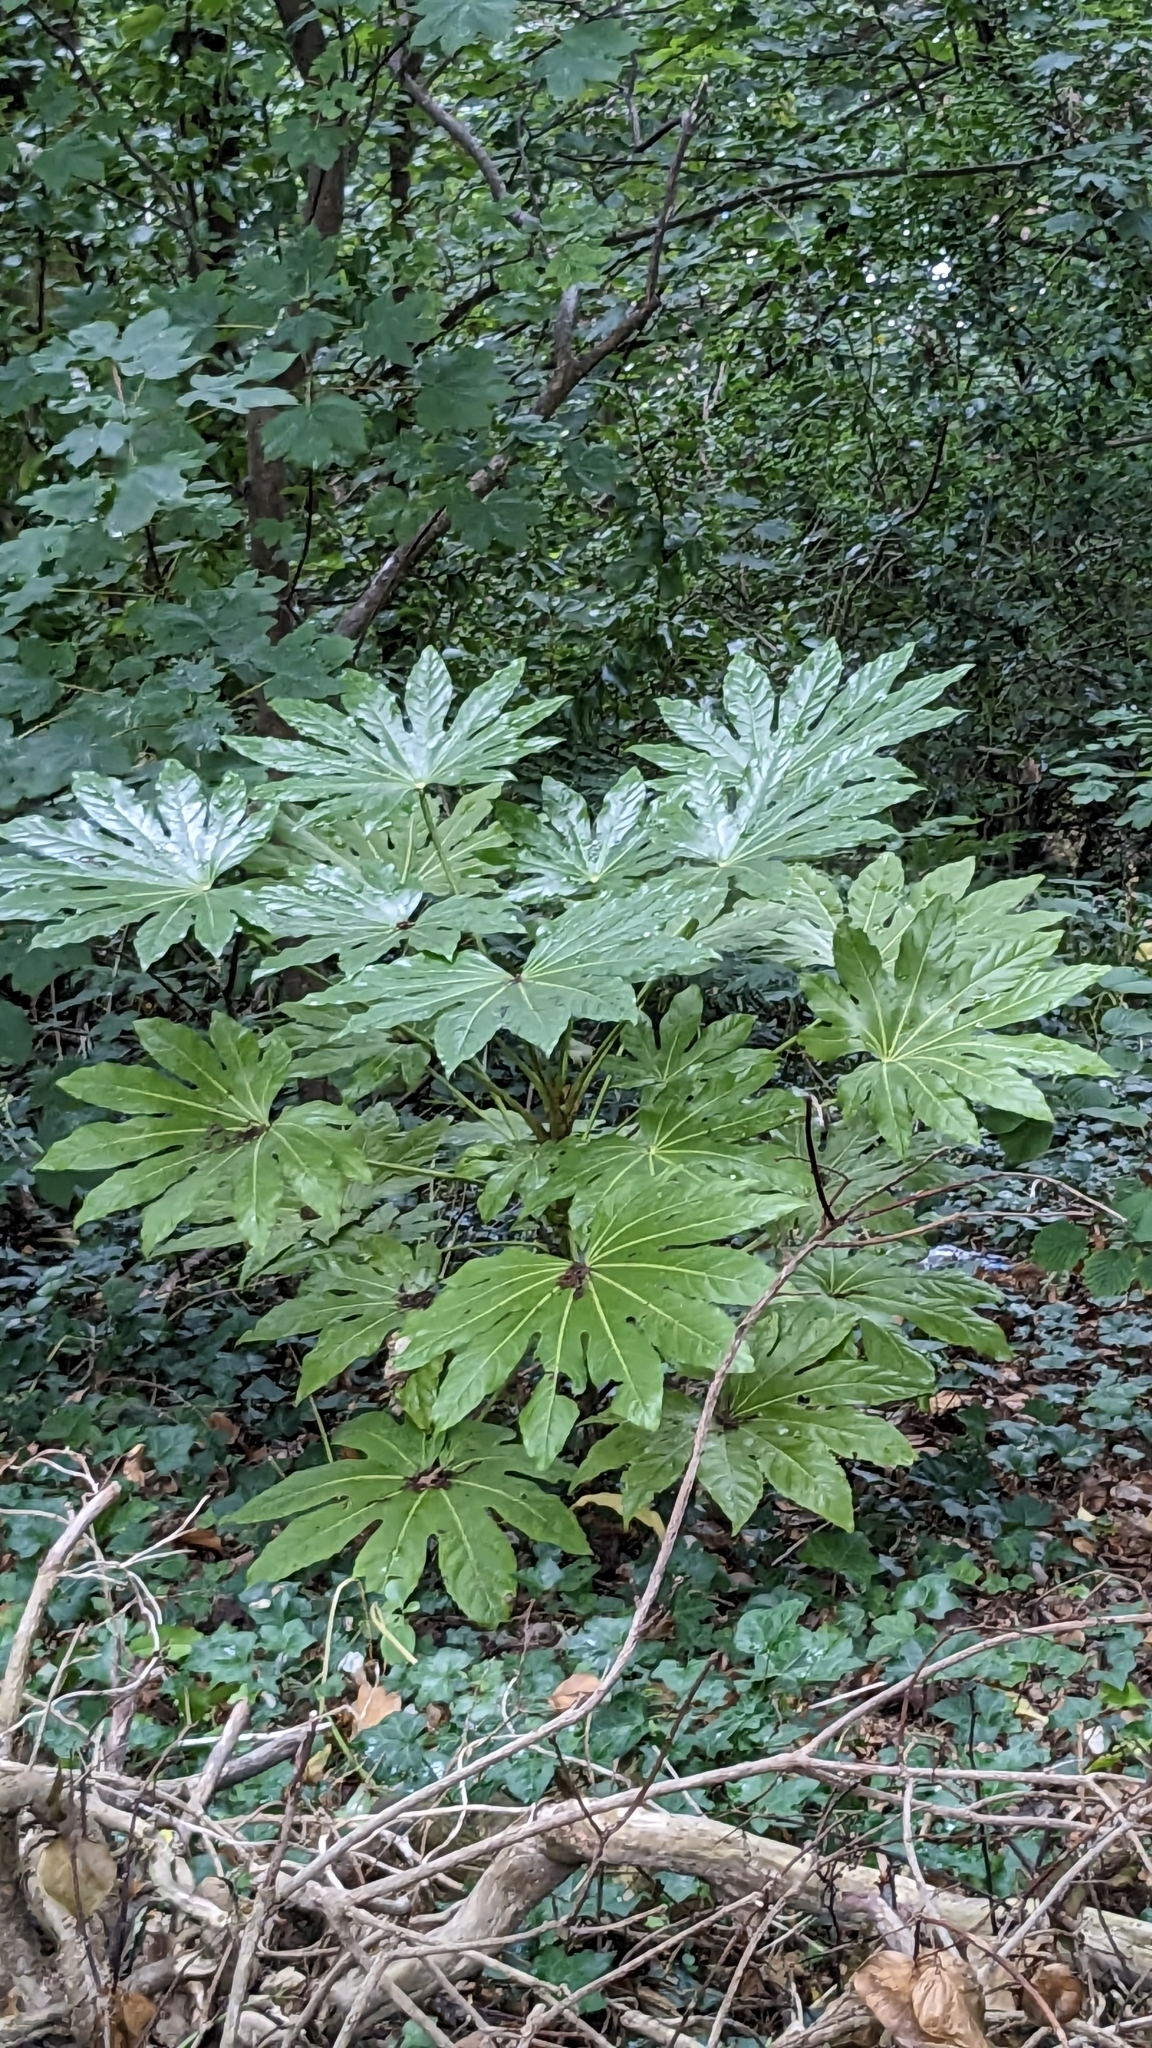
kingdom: Plantae
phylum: Tracheophyta
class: Magnoliopsida
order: Apiales
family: Araliaceae
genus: Fatsia
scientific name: Fatsia japonica
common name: Fatsia
